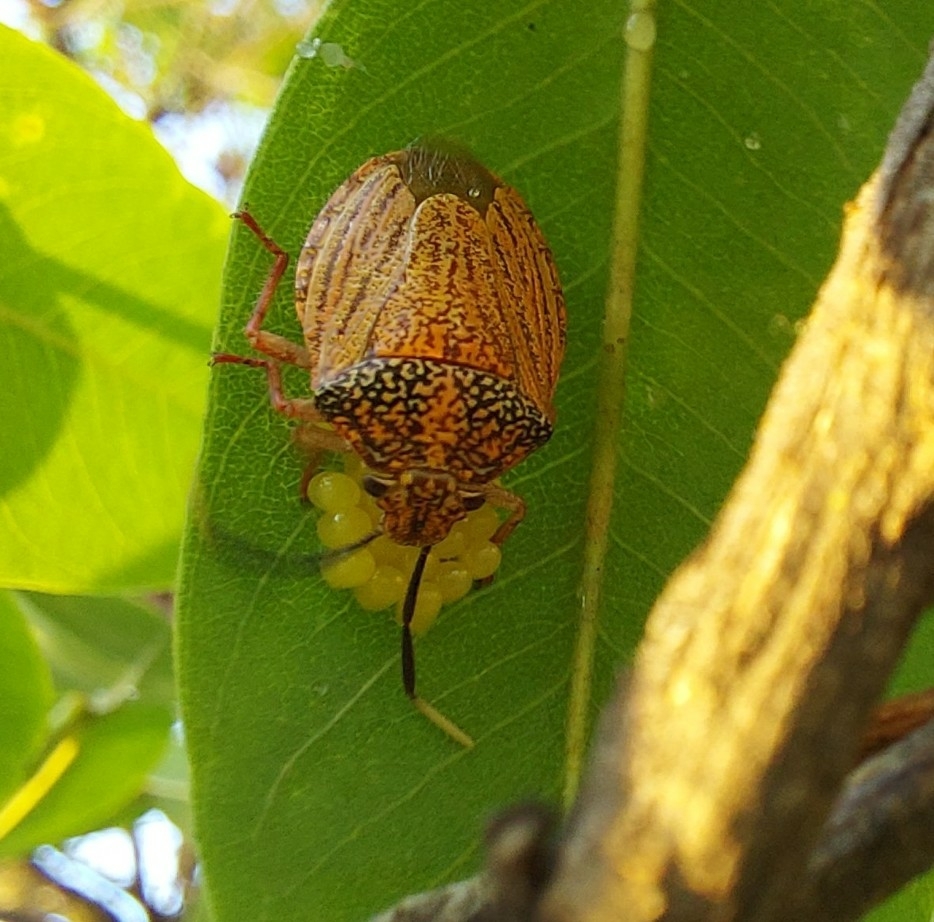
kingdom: Animalia
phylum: Arthropoda
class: Insecta
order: Hemiptera
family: Pentatomidae
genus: Antiteuchus
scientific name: Antiteuchus sepulcralis
